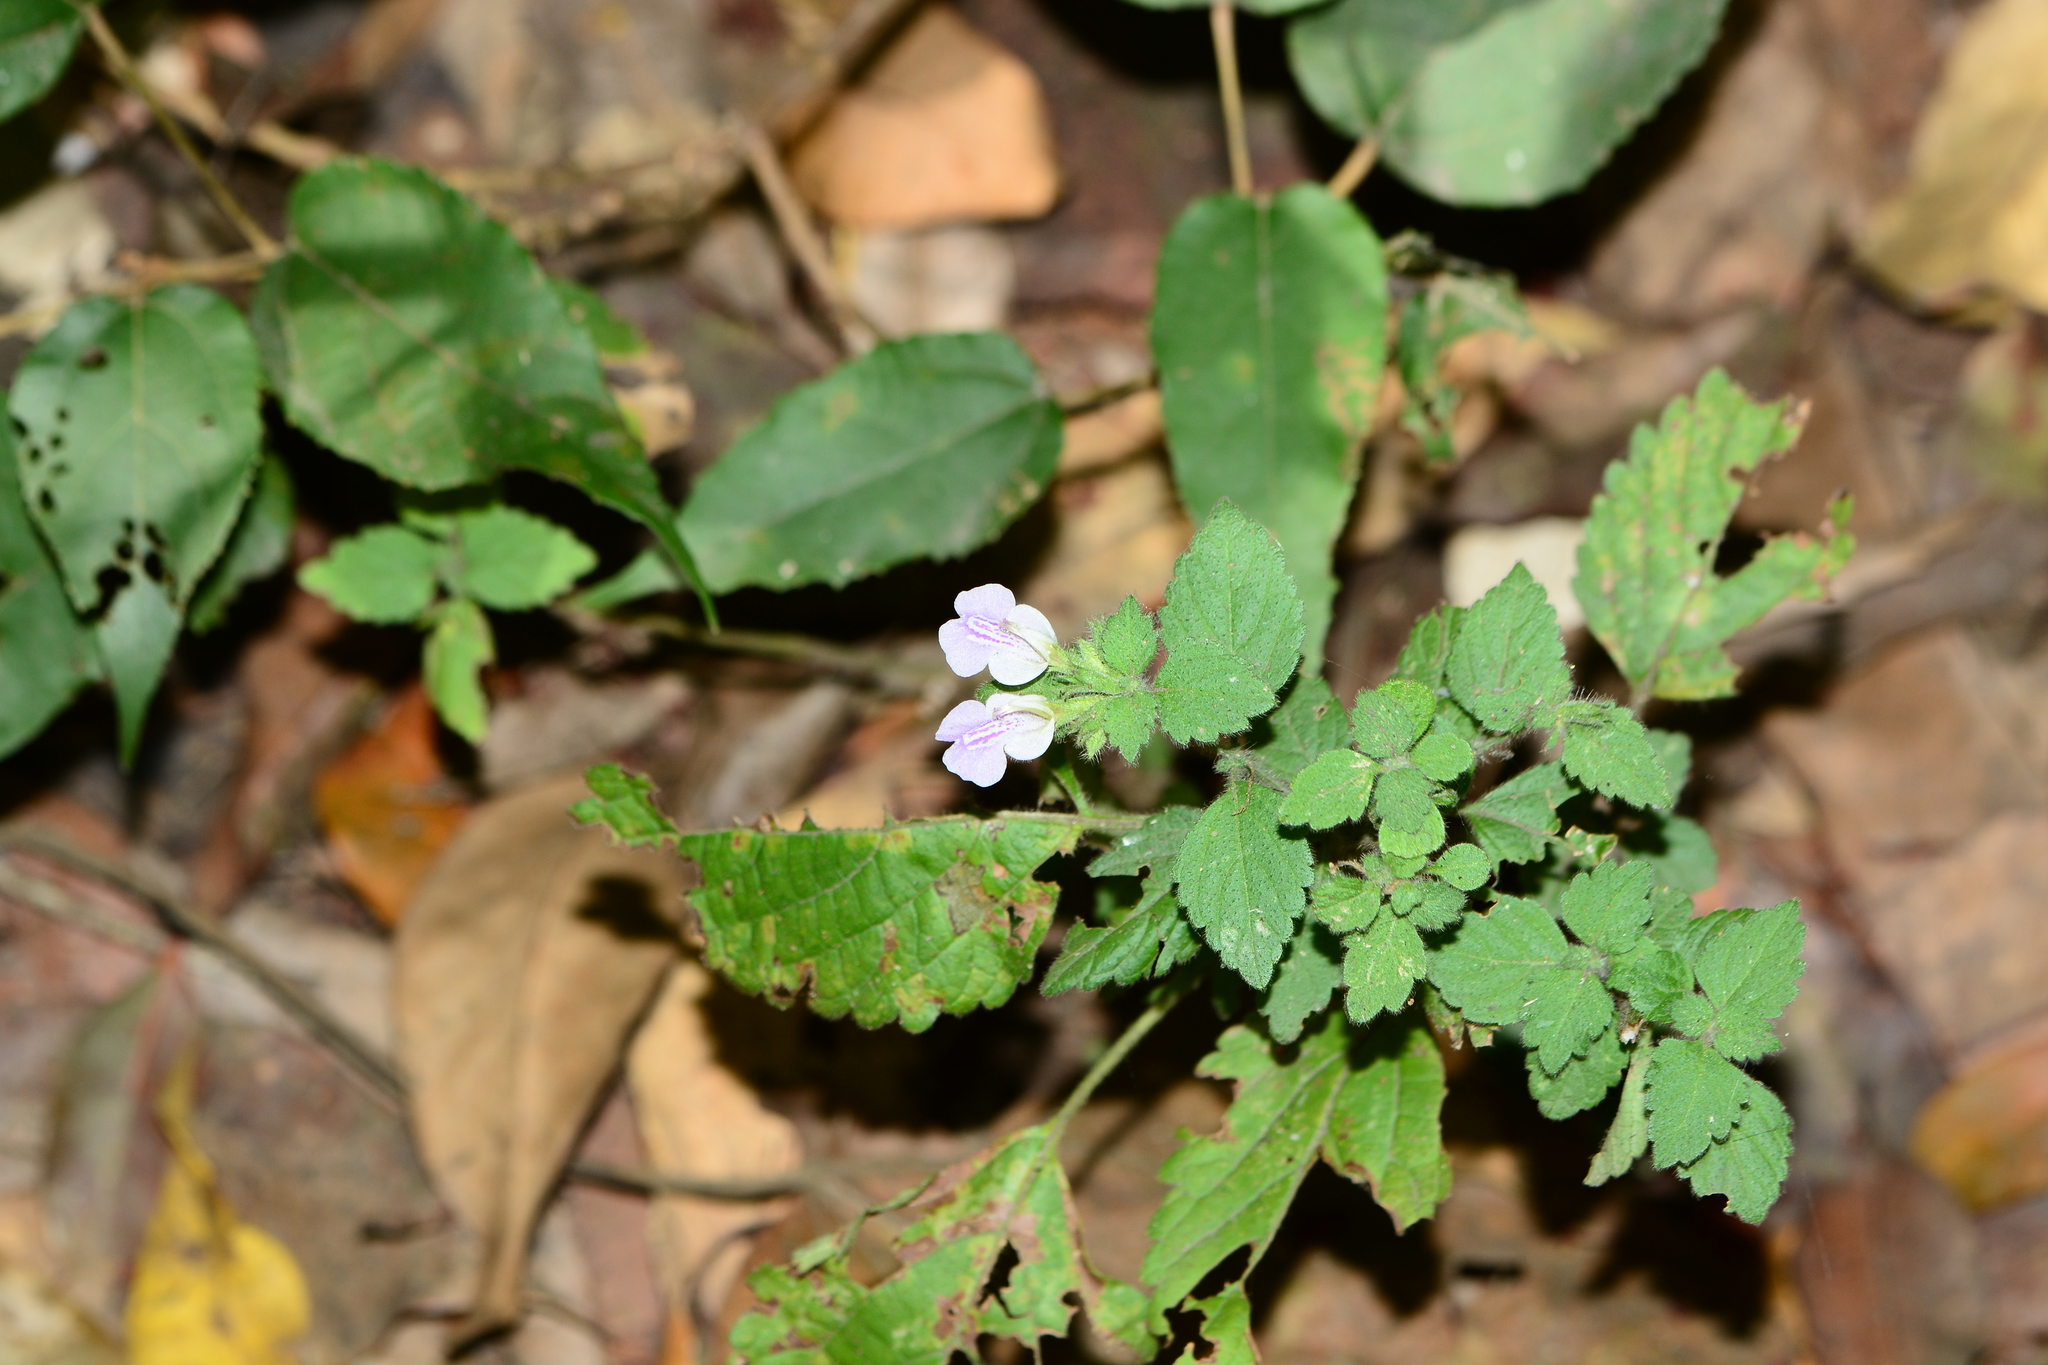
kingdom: Plantae
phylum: Tracheophyta
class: Magnoliopsida
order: Lamiales
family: Lamiaceae
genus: Anisomeles
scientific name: Anisomeles heyneana
